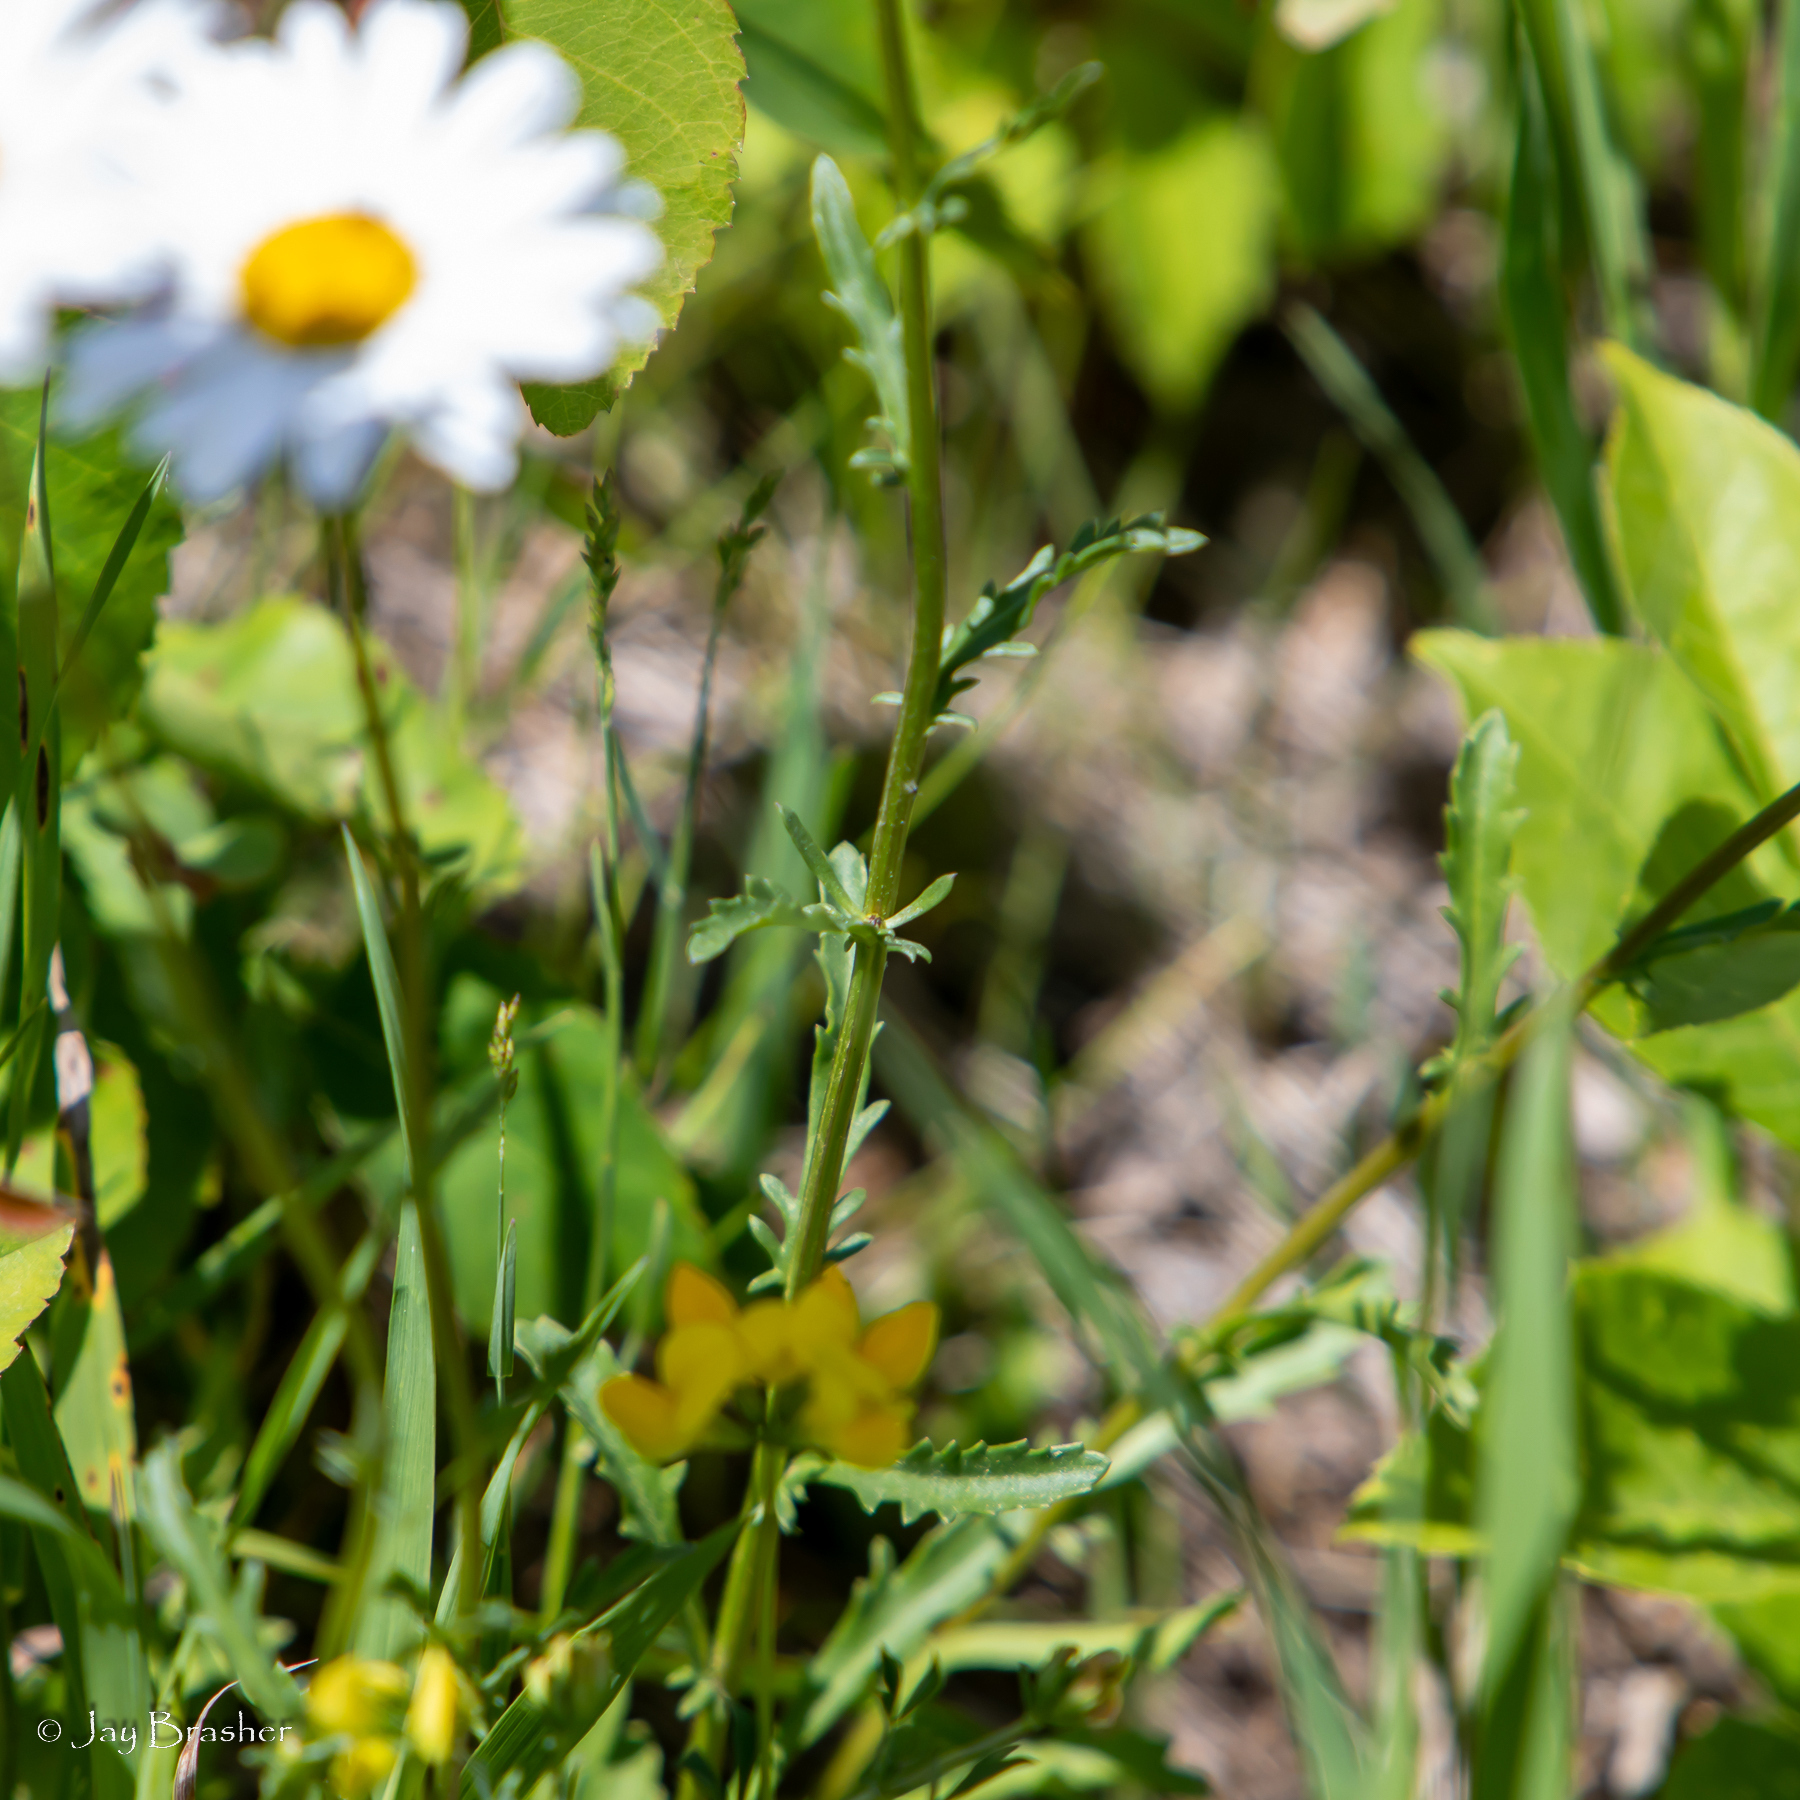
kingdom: Plantae
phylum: Tracheophyta
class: Magnoliopsida
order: Asterales
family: Asteraceae
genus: Leucanthemum
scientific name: Leucanthemum vulgare
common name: Oxeye daisy
